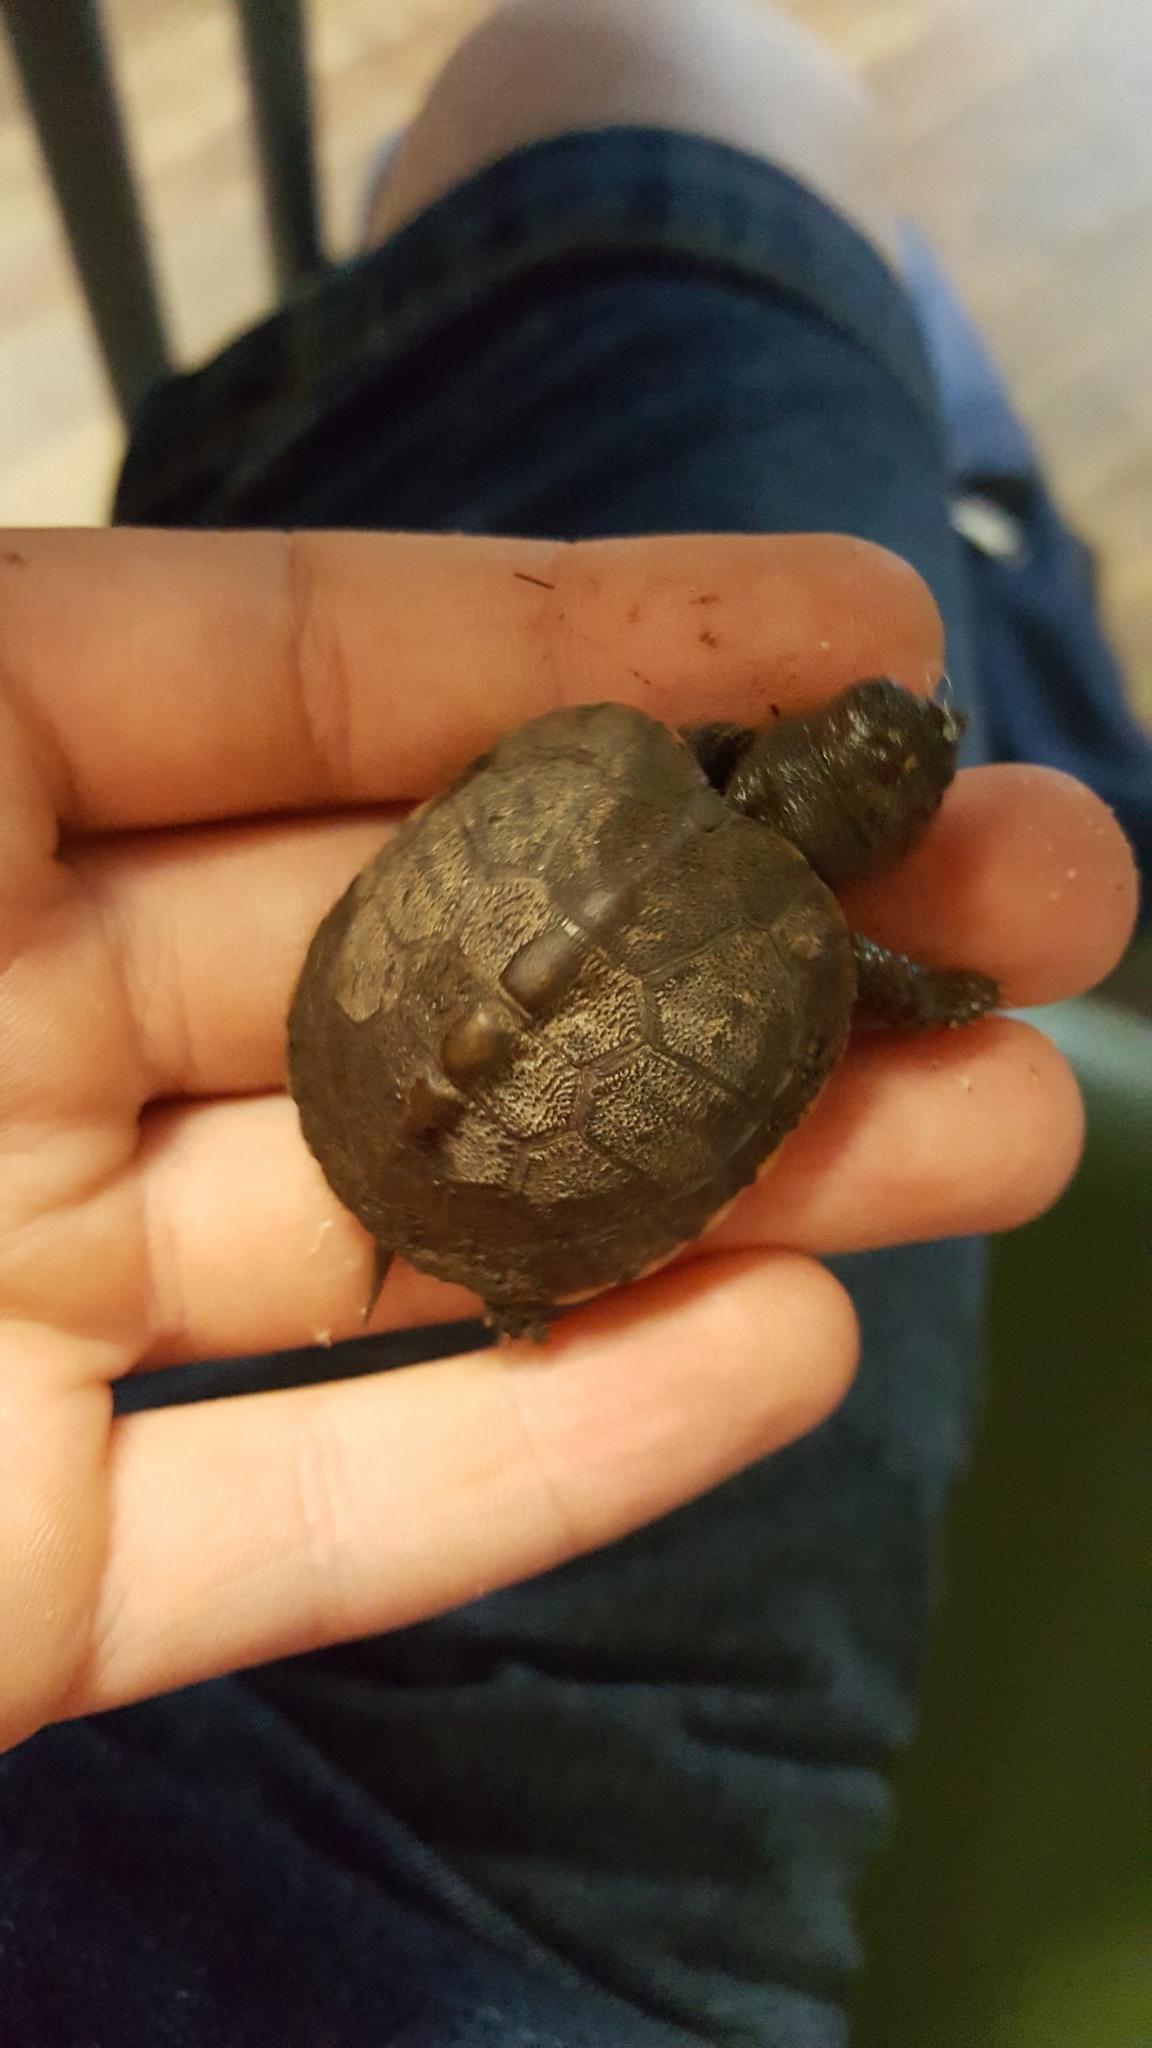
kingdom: Animalia
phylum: Chordata
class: Testudines
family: Emydidae
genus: Terrapene
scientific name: Terrapene carolina
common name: Common box turtle
